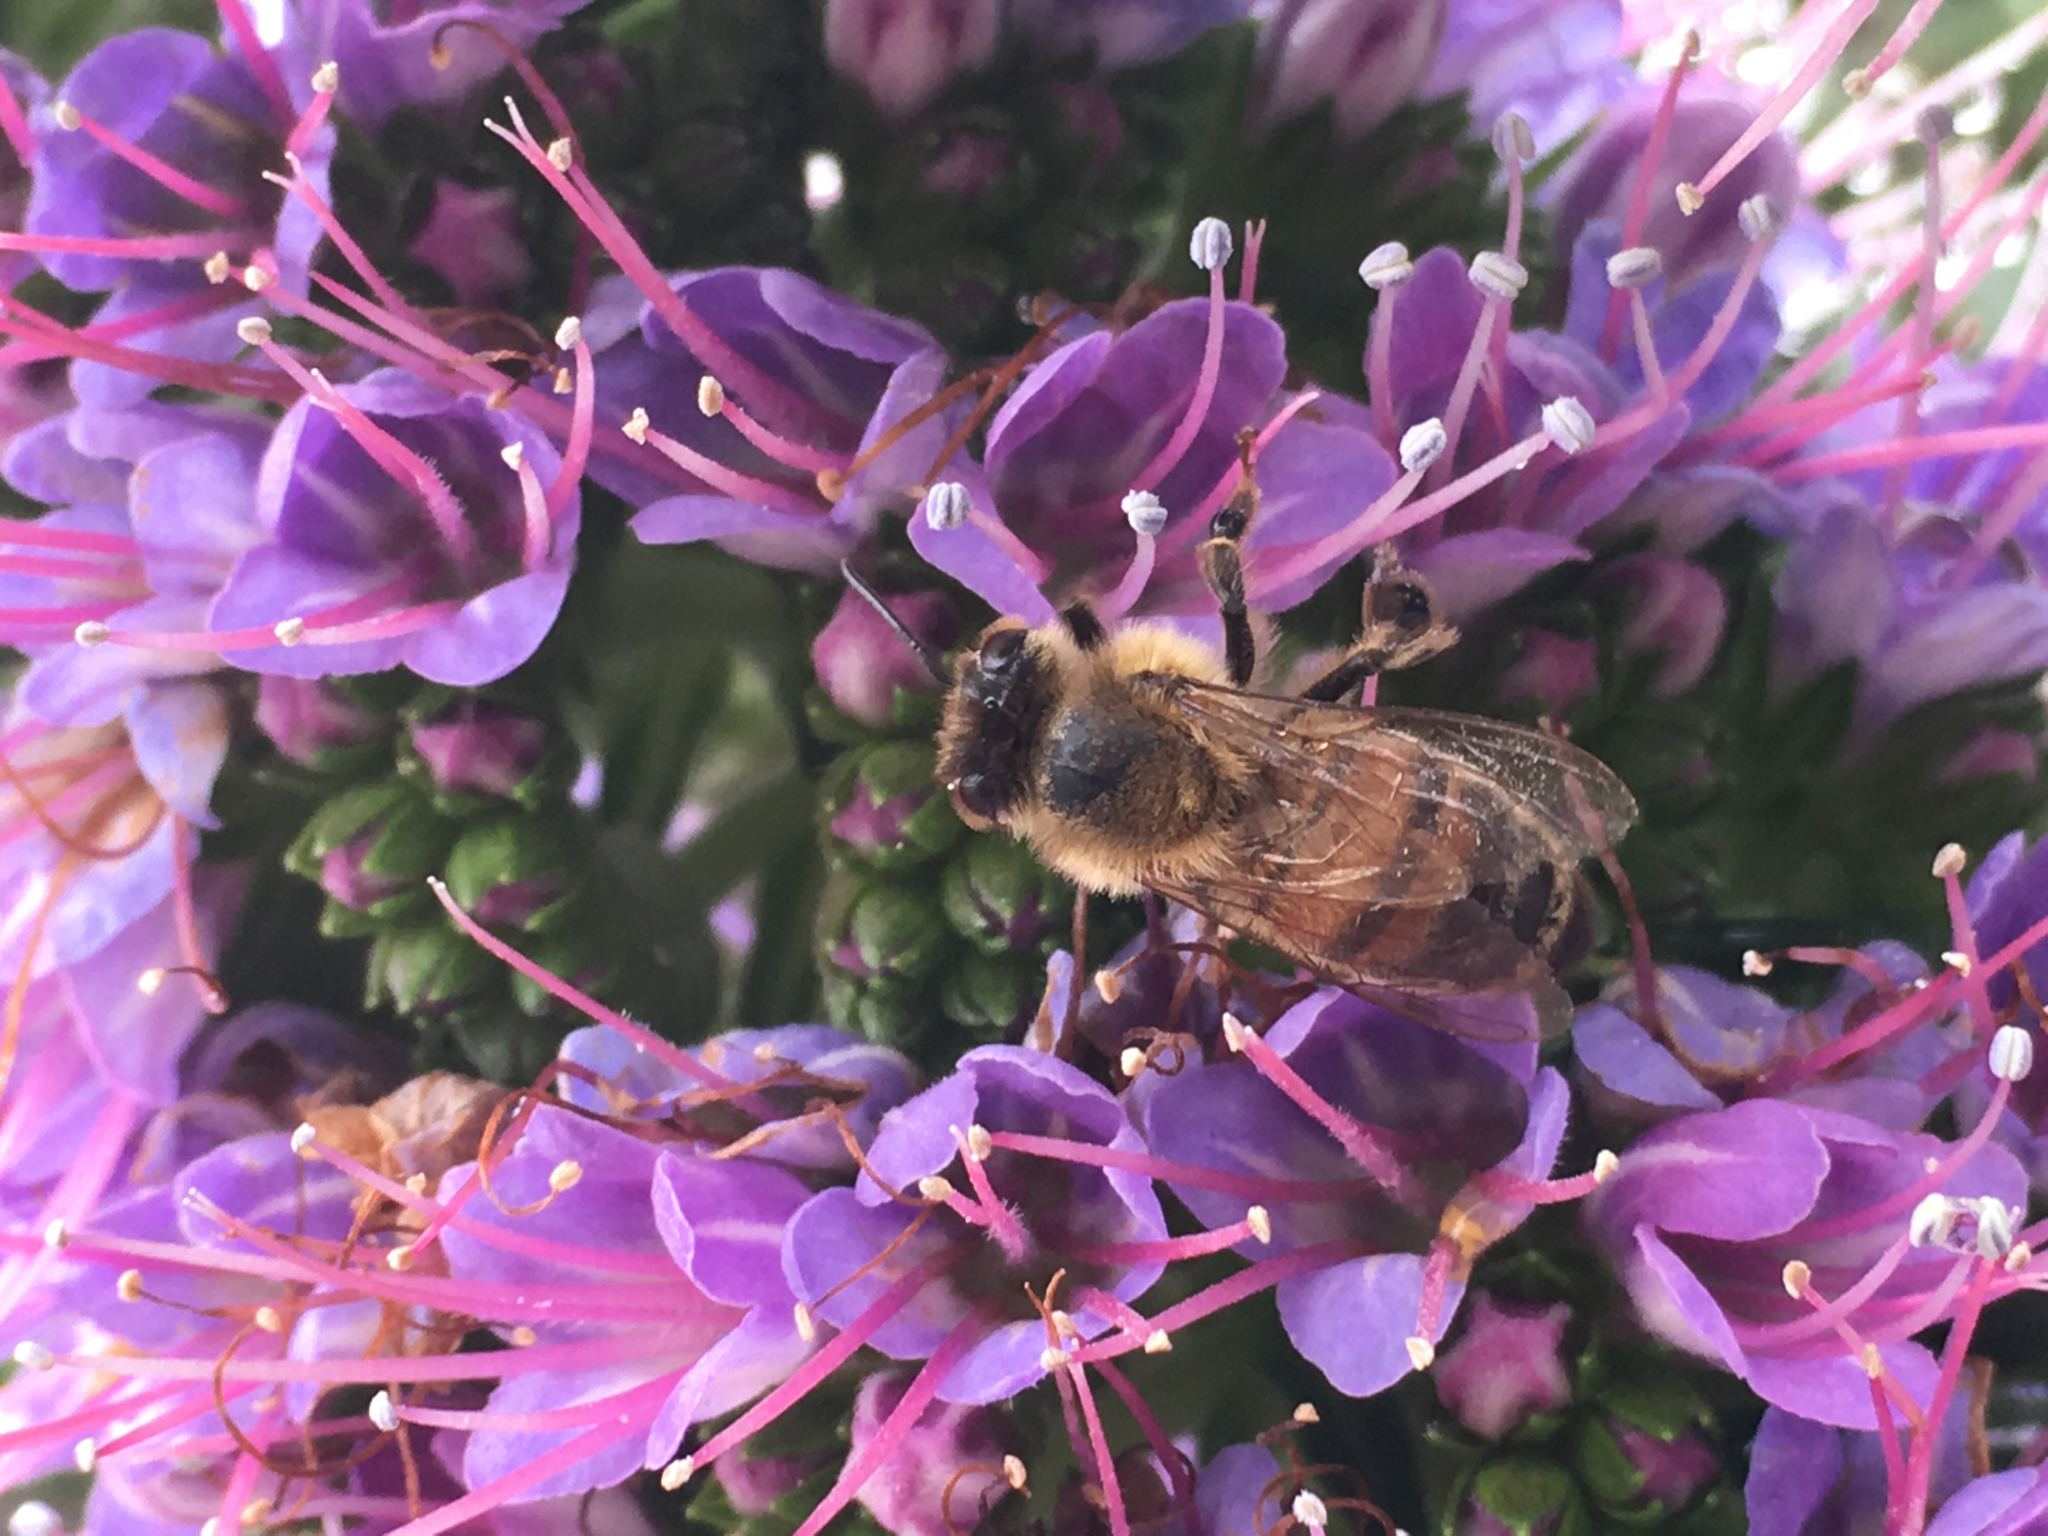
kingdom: Animalia
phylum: Arthropoda
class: Insecta
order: Hymenoptera
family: Apidae
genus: Apis
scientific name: Apis mellifera
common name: Honey bee
